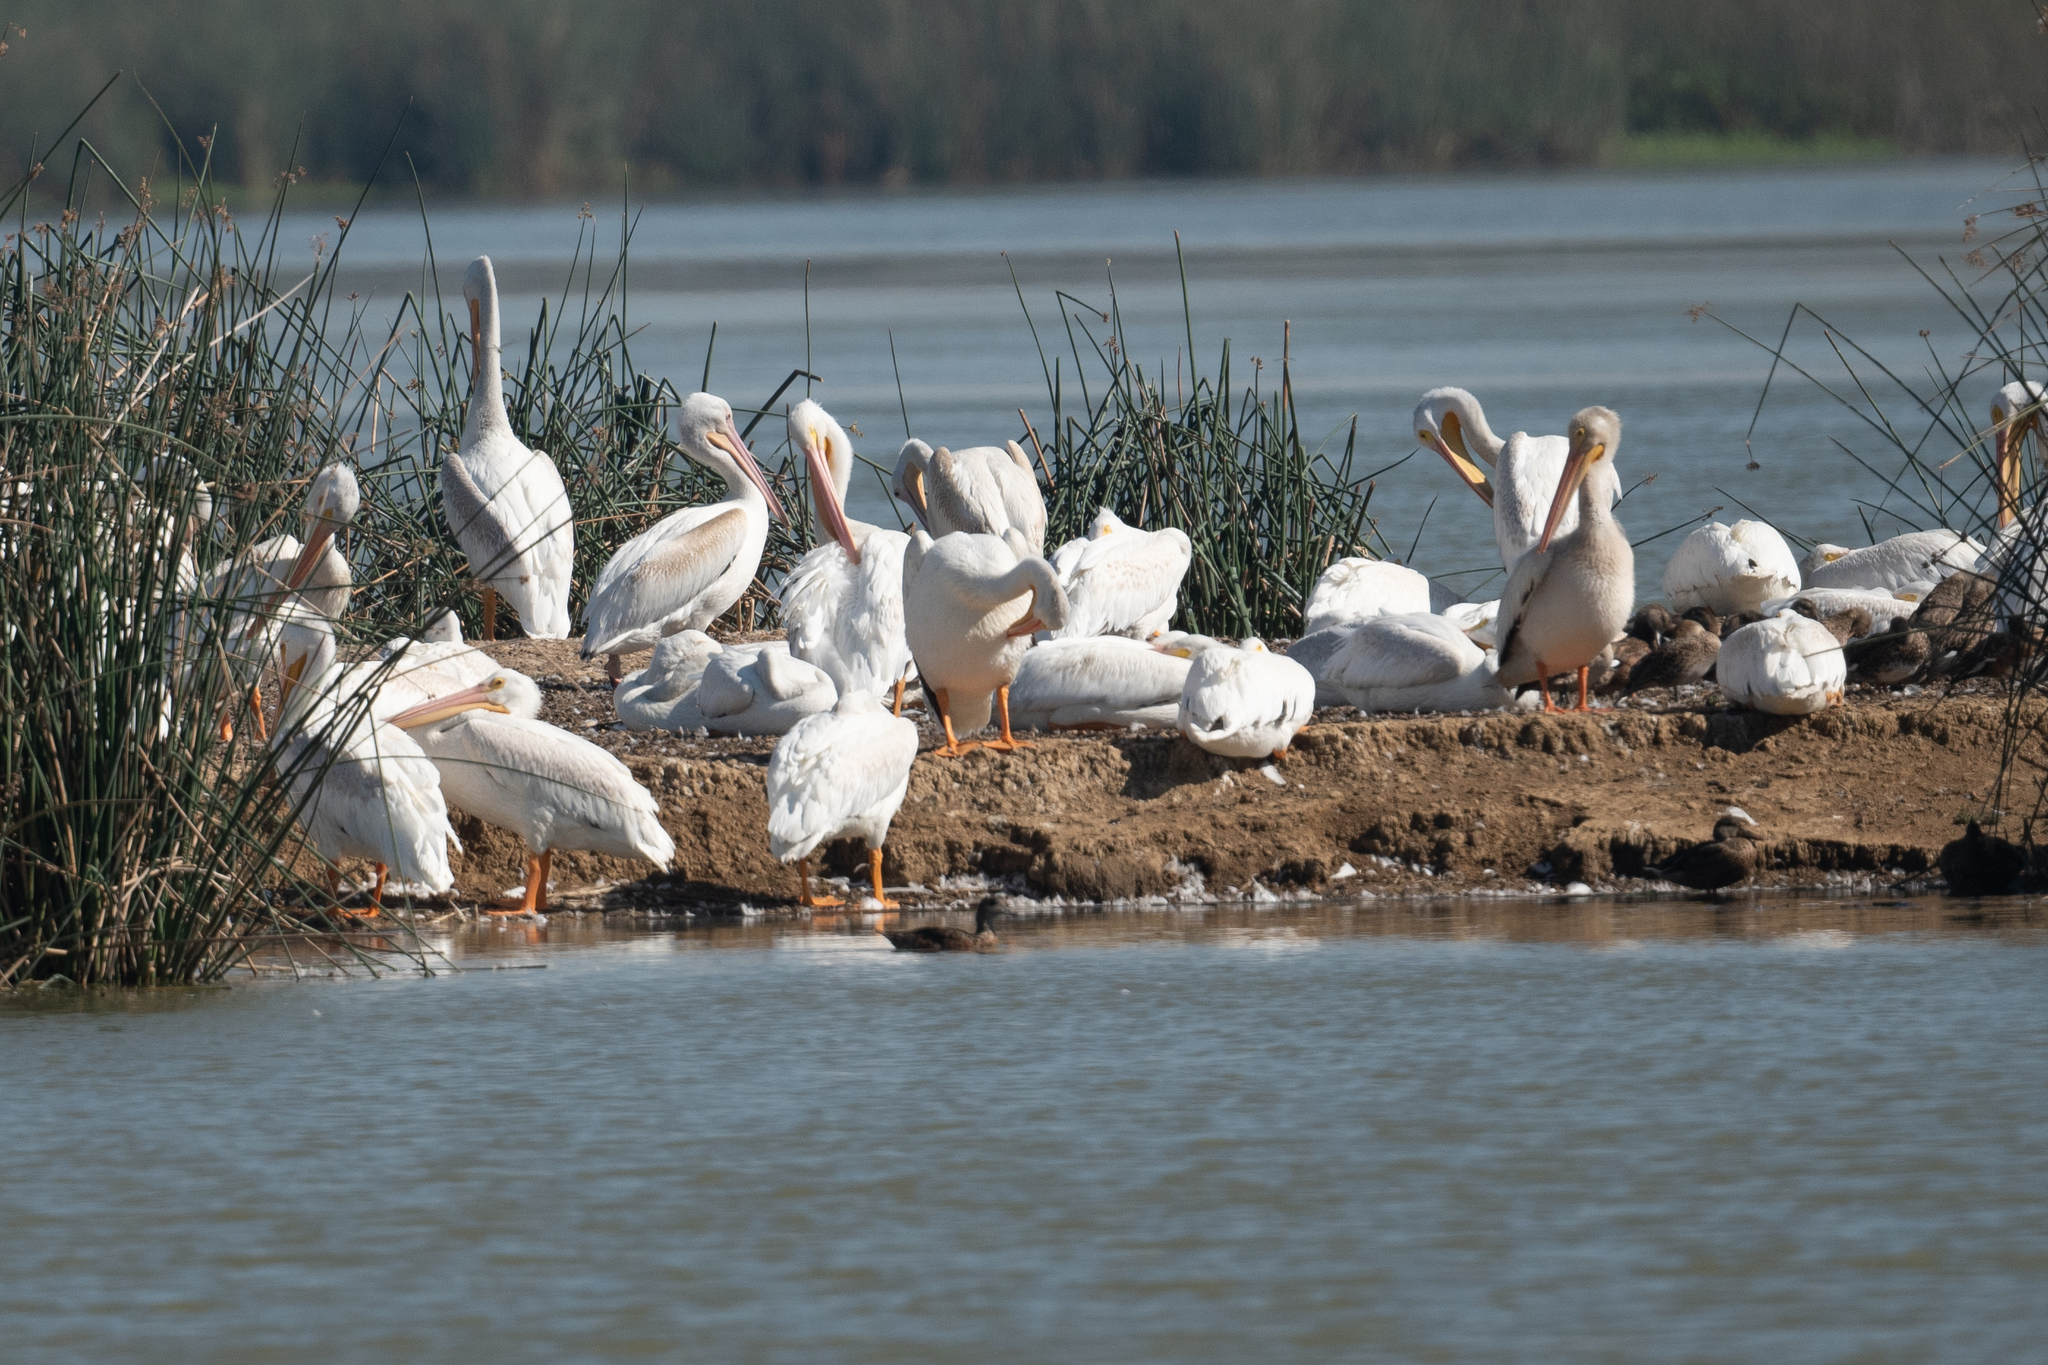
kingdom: Animalia
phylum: Chordata
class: Aves
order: Pelecaniformes
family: Pelecanidae
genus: Pelecanus
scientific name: Pelecanus erythrorhynchos
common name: American white pelican
